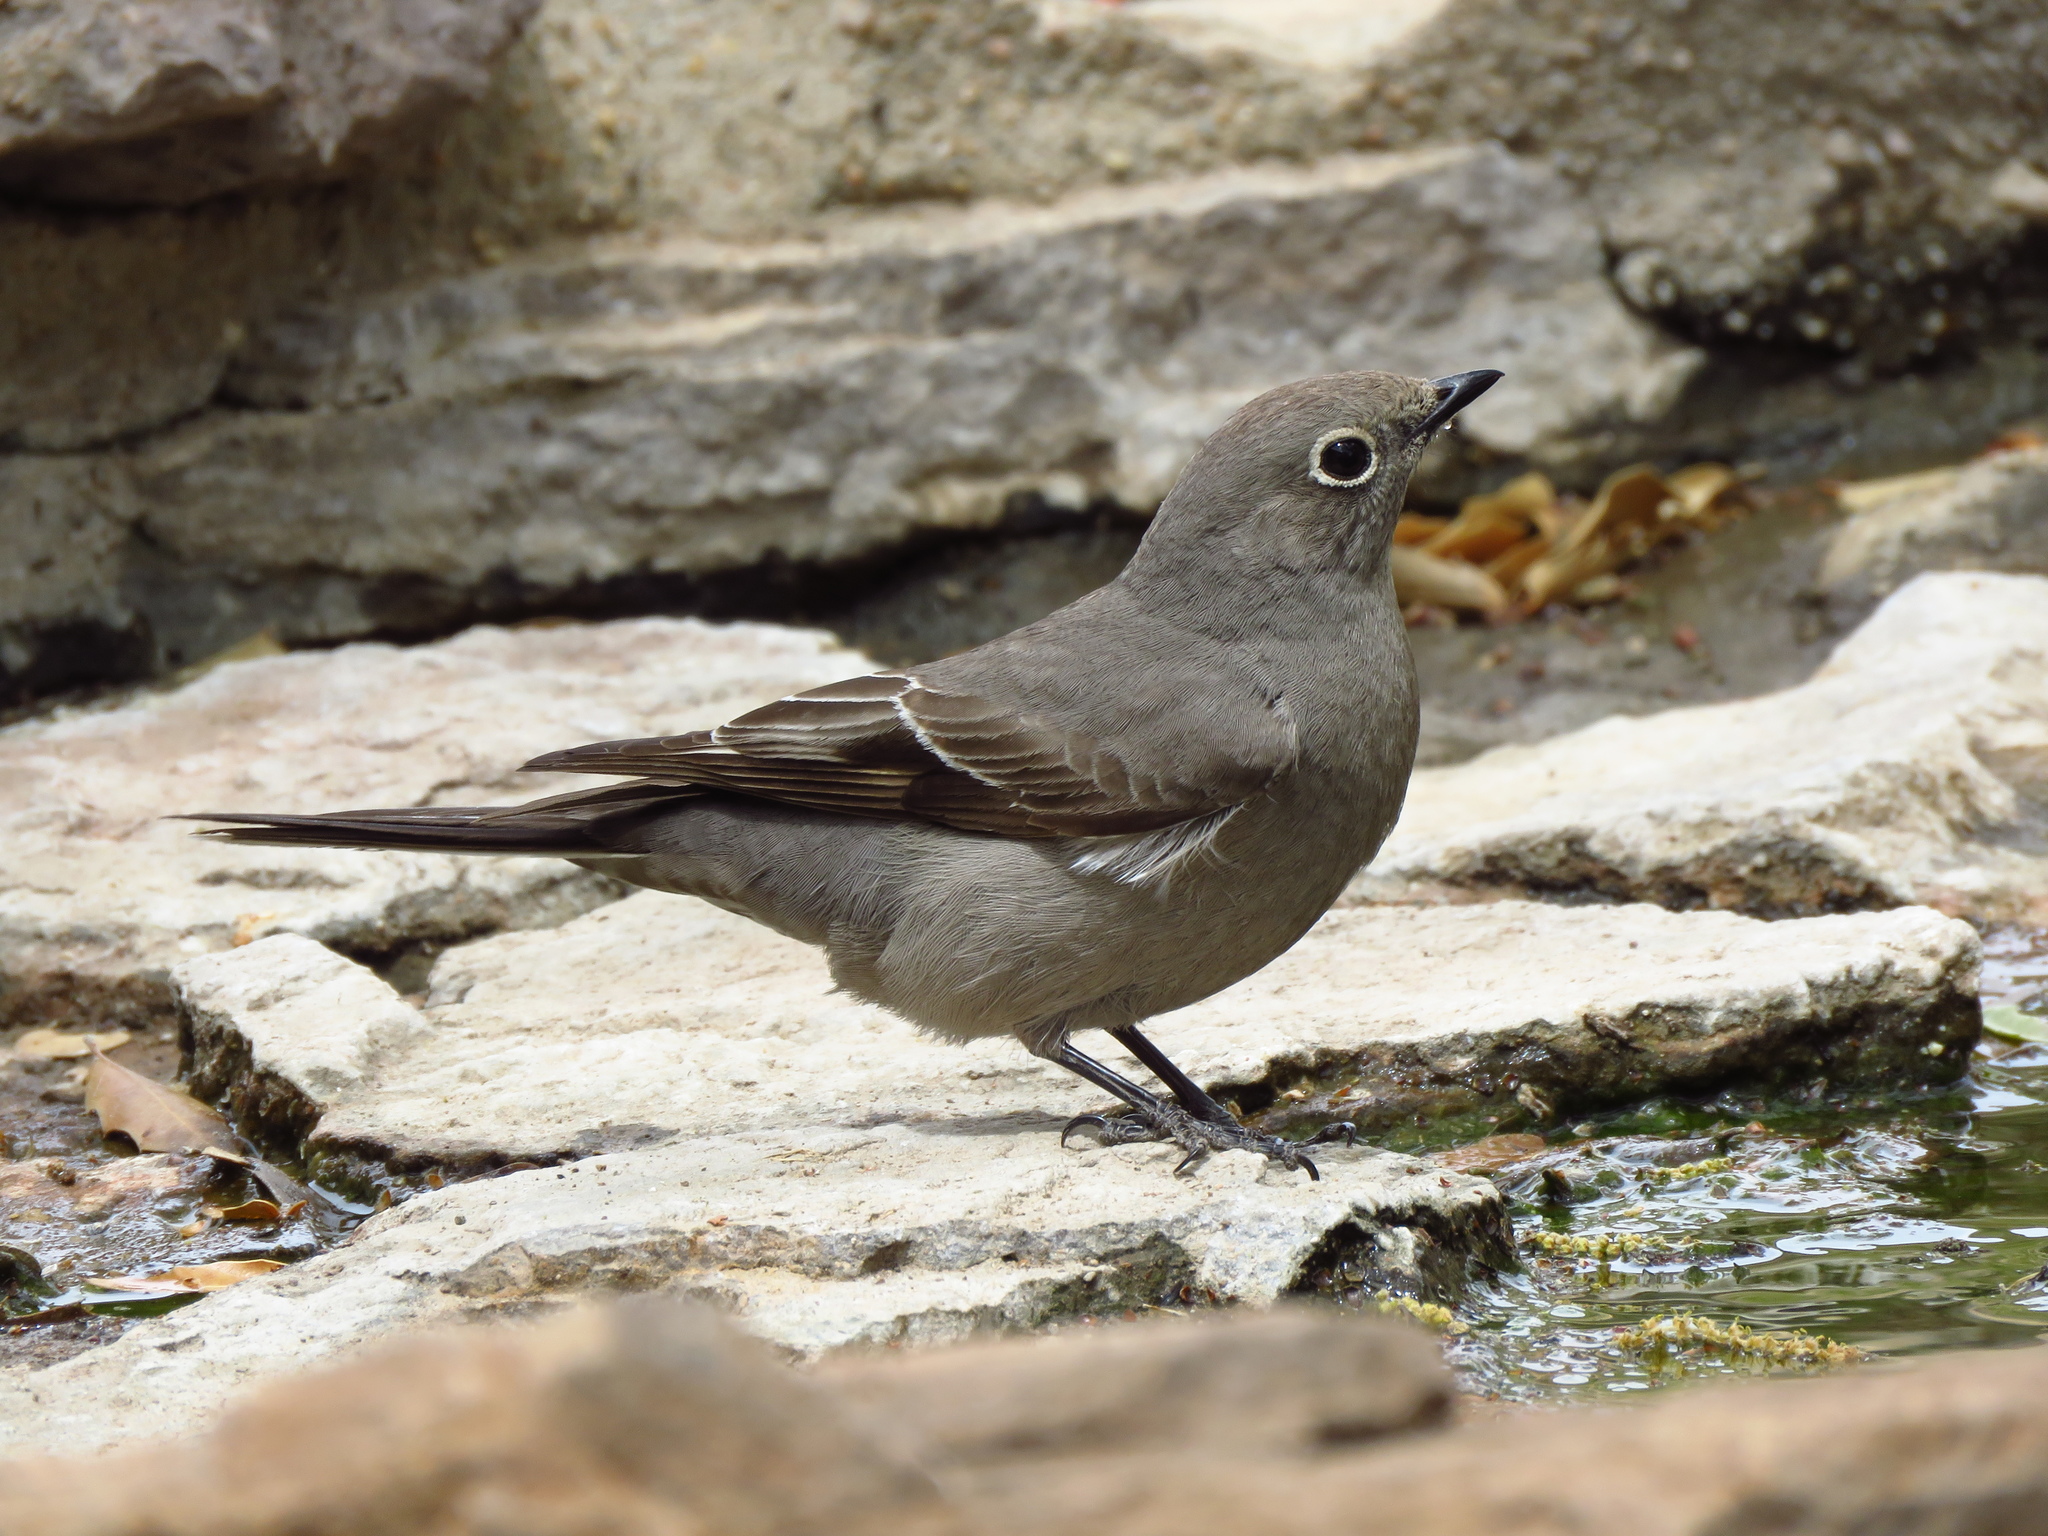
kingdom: Animalia
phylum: Chordata
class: Aves
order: Passeriformes
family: Turdidae
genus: Myadestes
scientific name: Myadestes townsendi
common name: Townsend's solitaire
